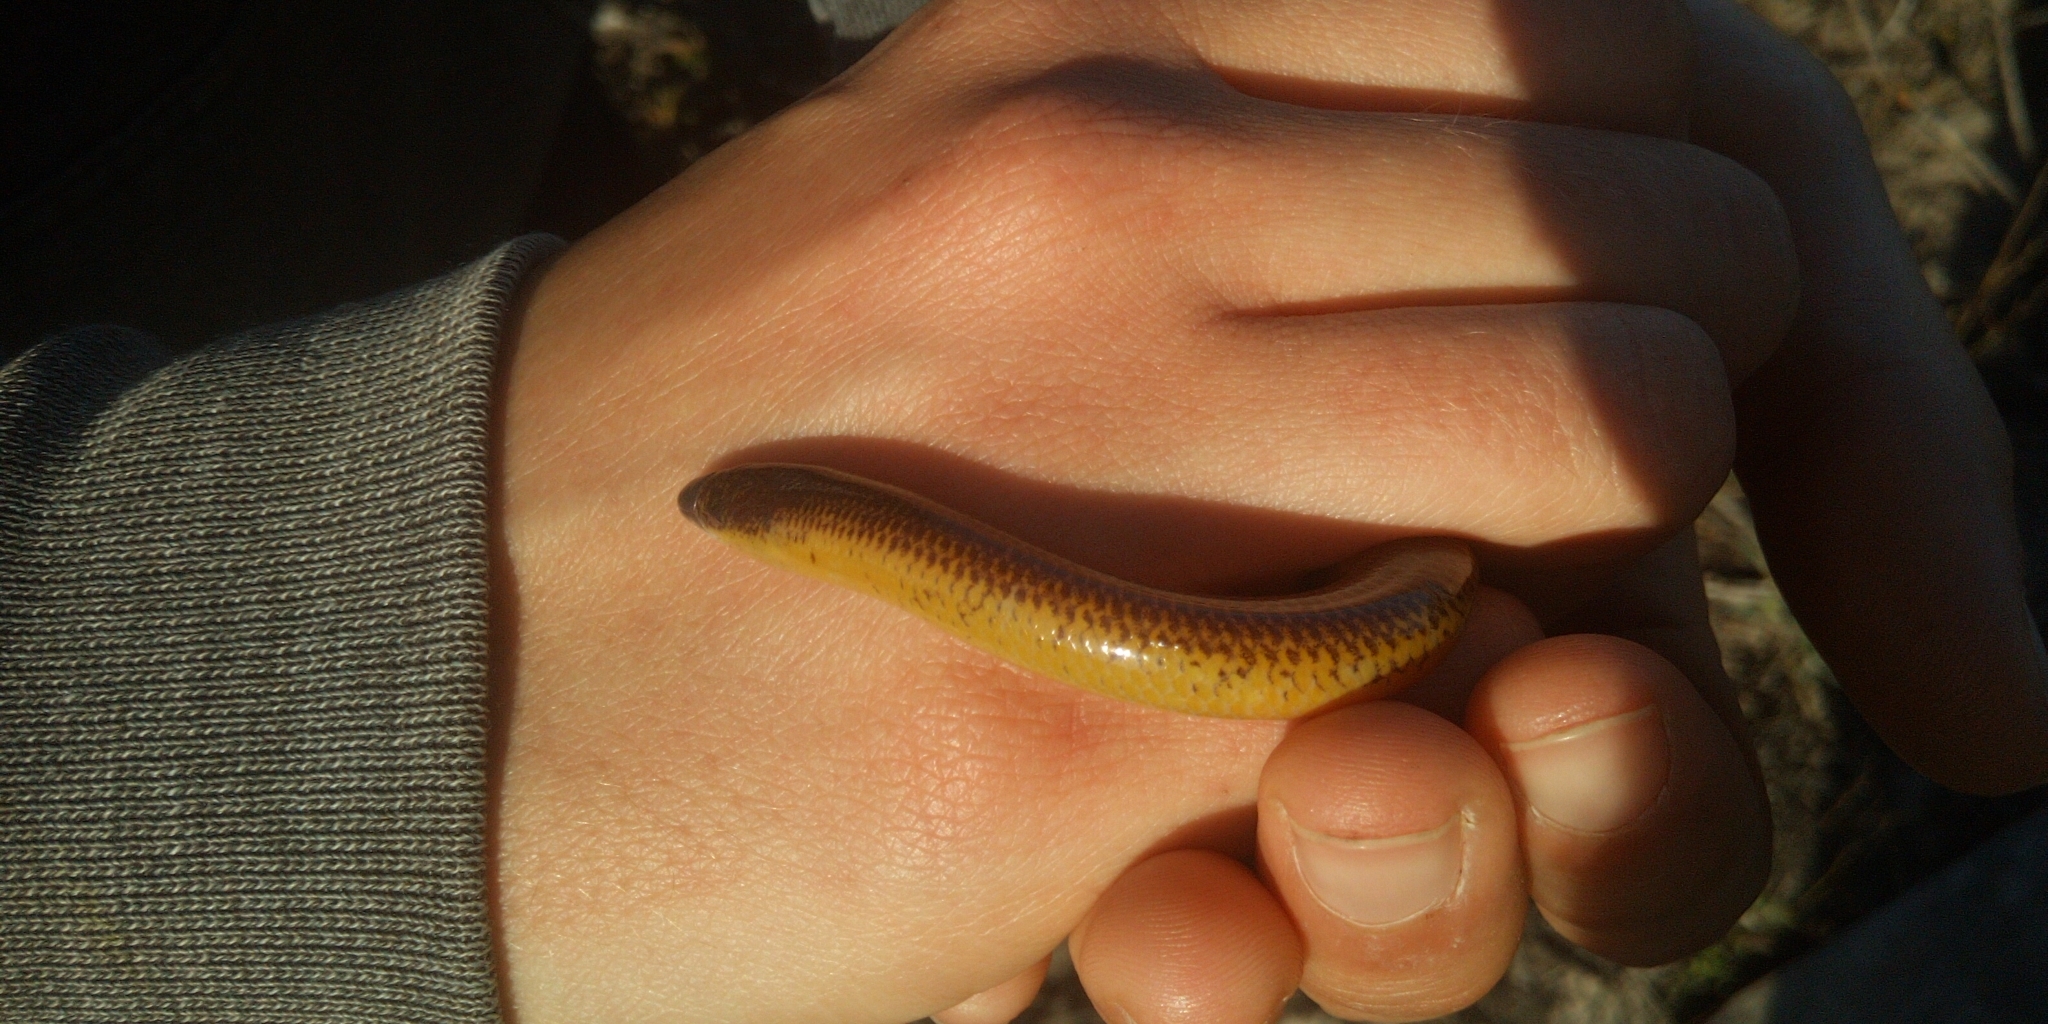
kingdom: Animalia
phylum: Chordata
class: Squamata
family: Scincidae
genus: Acontias
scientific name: Acontias meleagris
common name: Cape legless skink
